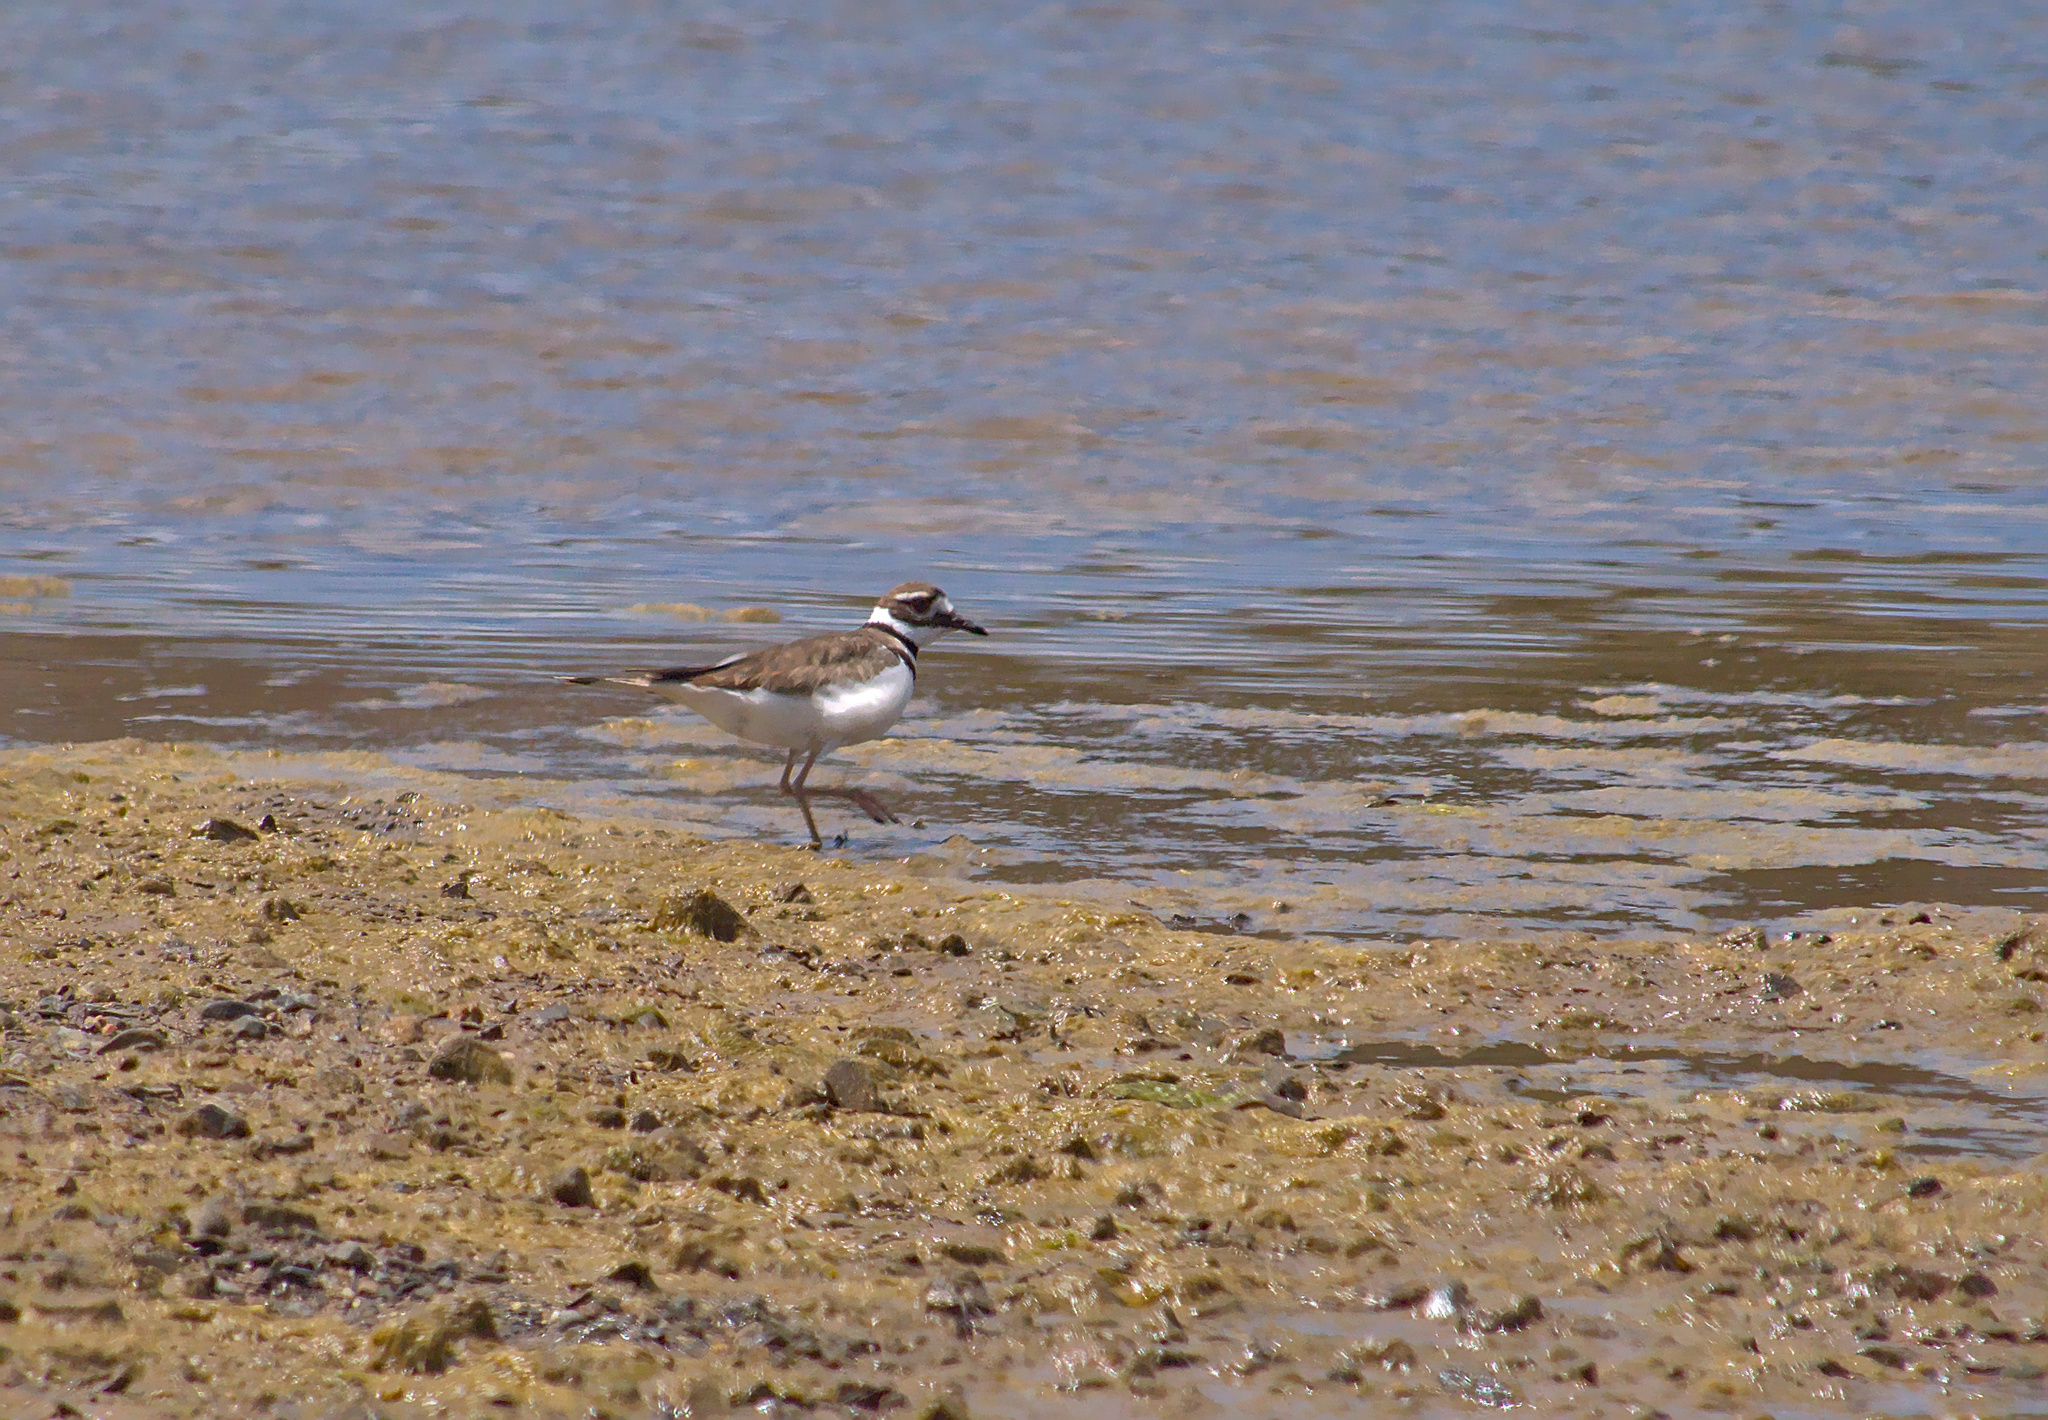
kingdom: Animalia
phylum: Chordata
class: Aves
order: Charadriiformes
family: Charadriidae
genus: Charadrius
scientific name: Charadrius vociferus
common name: Killdeer
